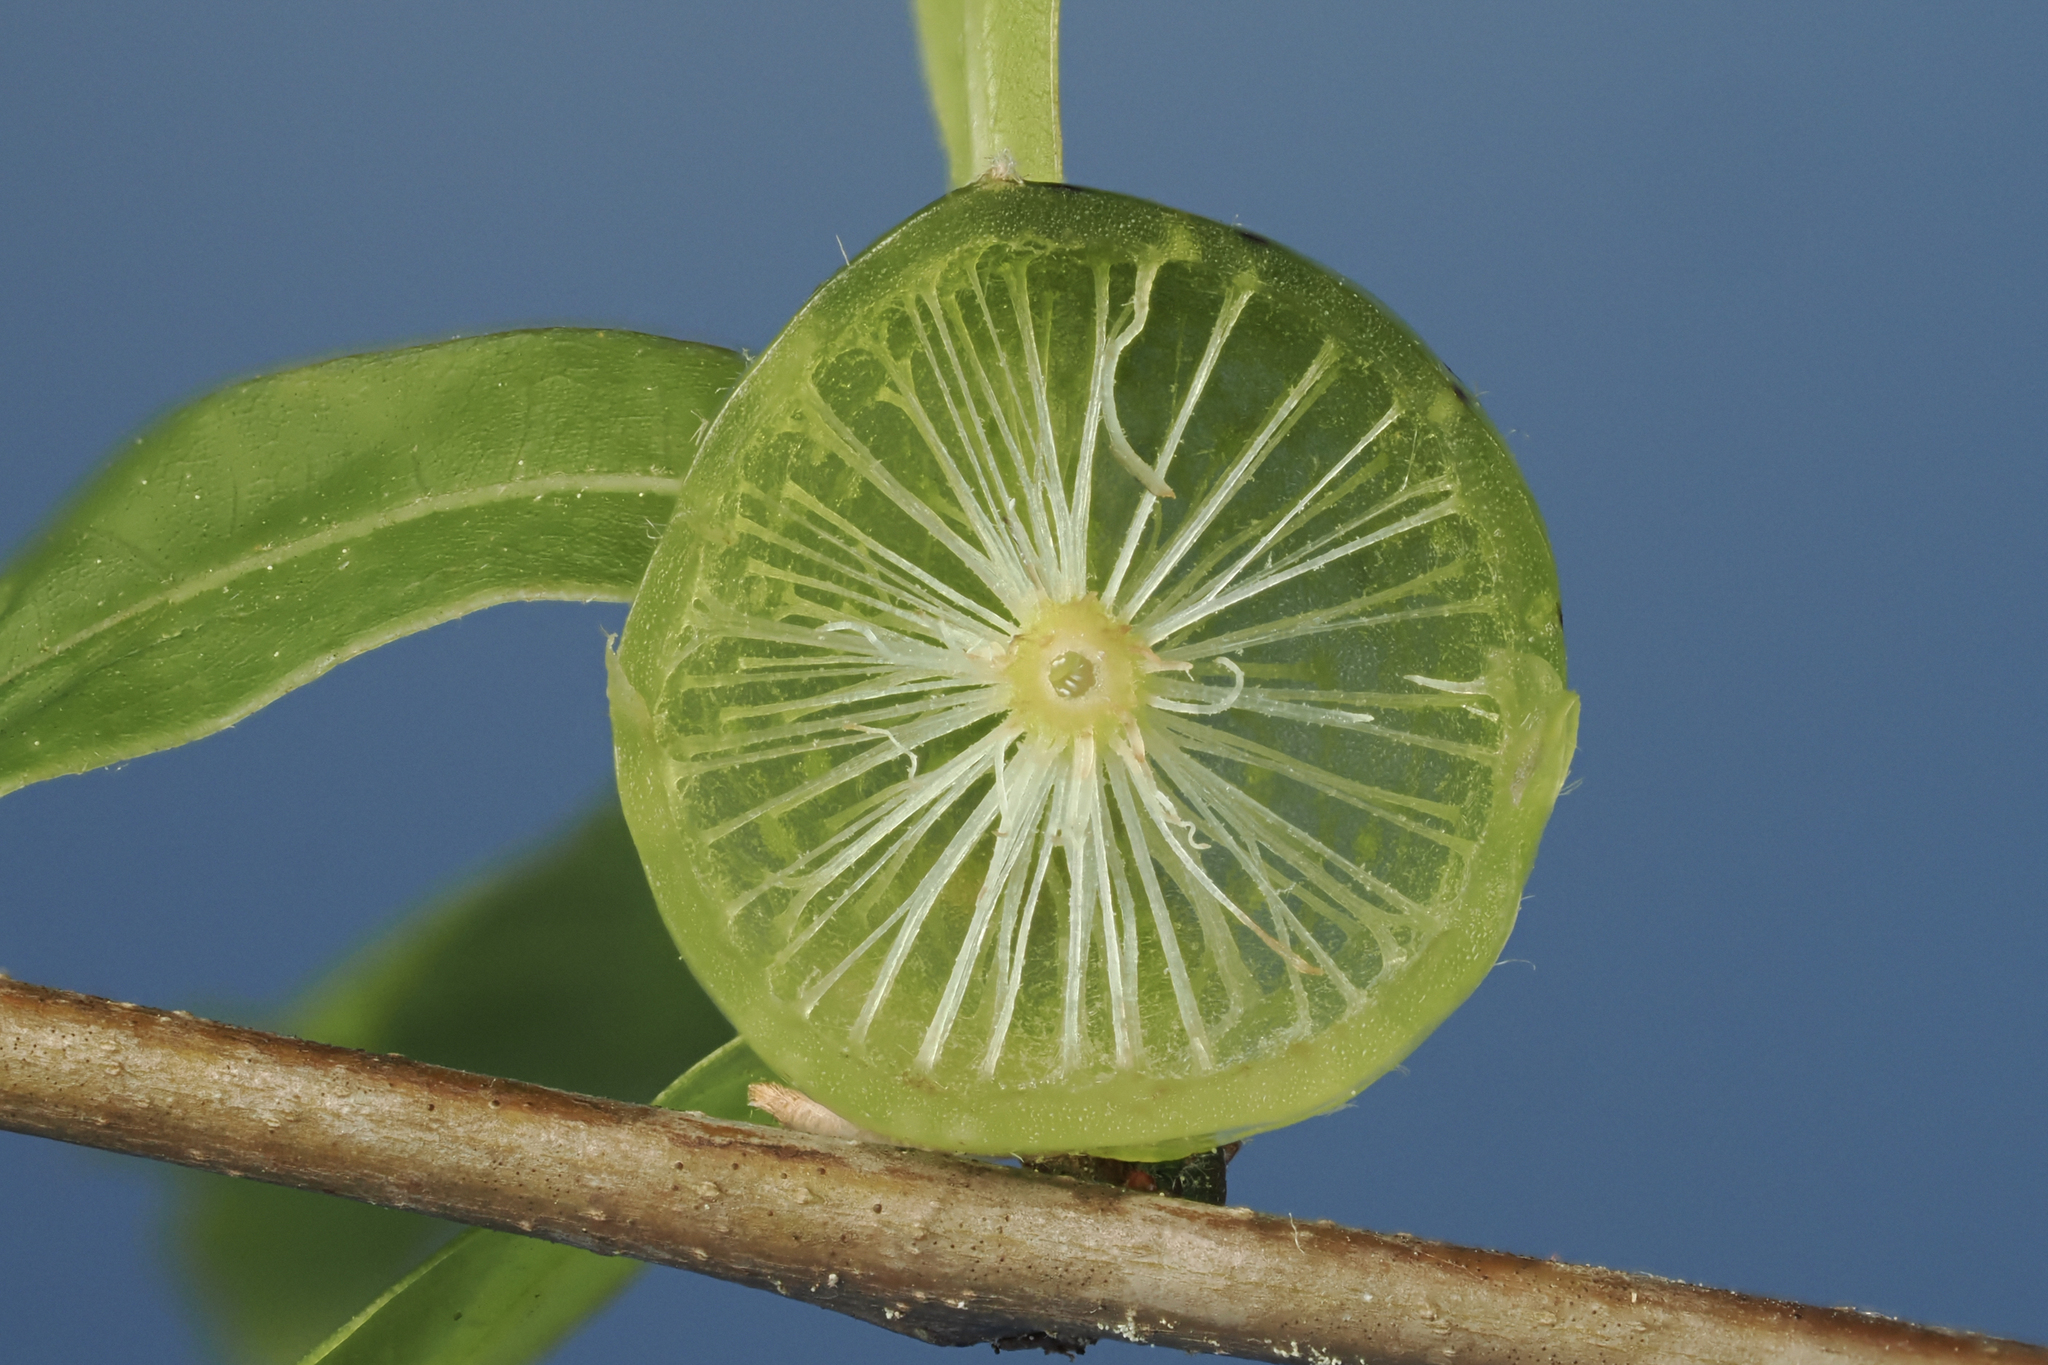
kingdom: Animalia
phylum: Arthropoda
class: Insecta
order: Hymenoptera
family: Cynipidae
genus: Amphibolips
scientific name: Amphibolips
